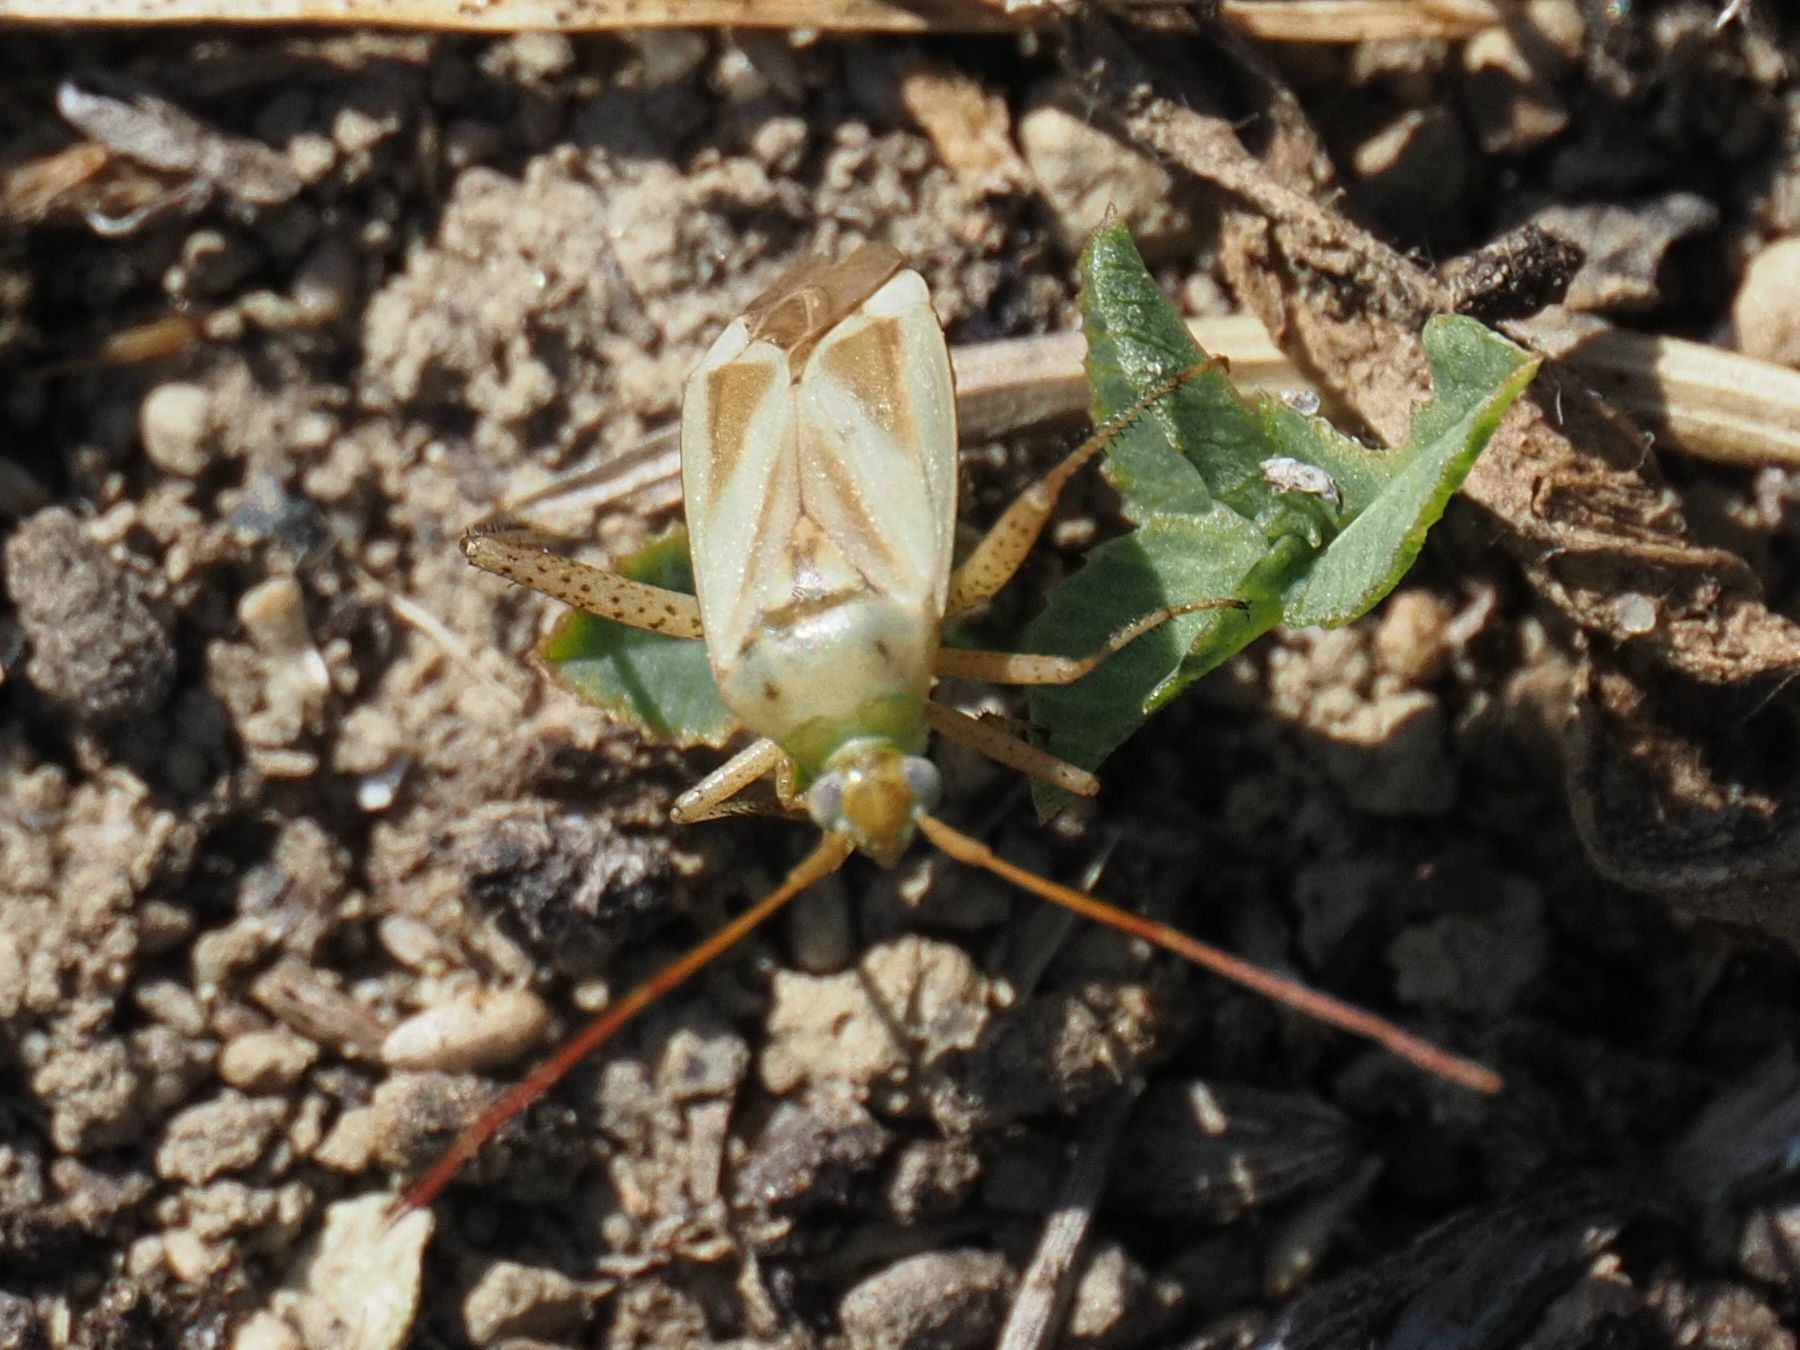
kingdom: Animalia
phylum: Arthropoda
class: Insecta
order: Hemiptera
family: Miridae
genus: Adelphocoris
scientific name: Adelphocoris lineolatus
